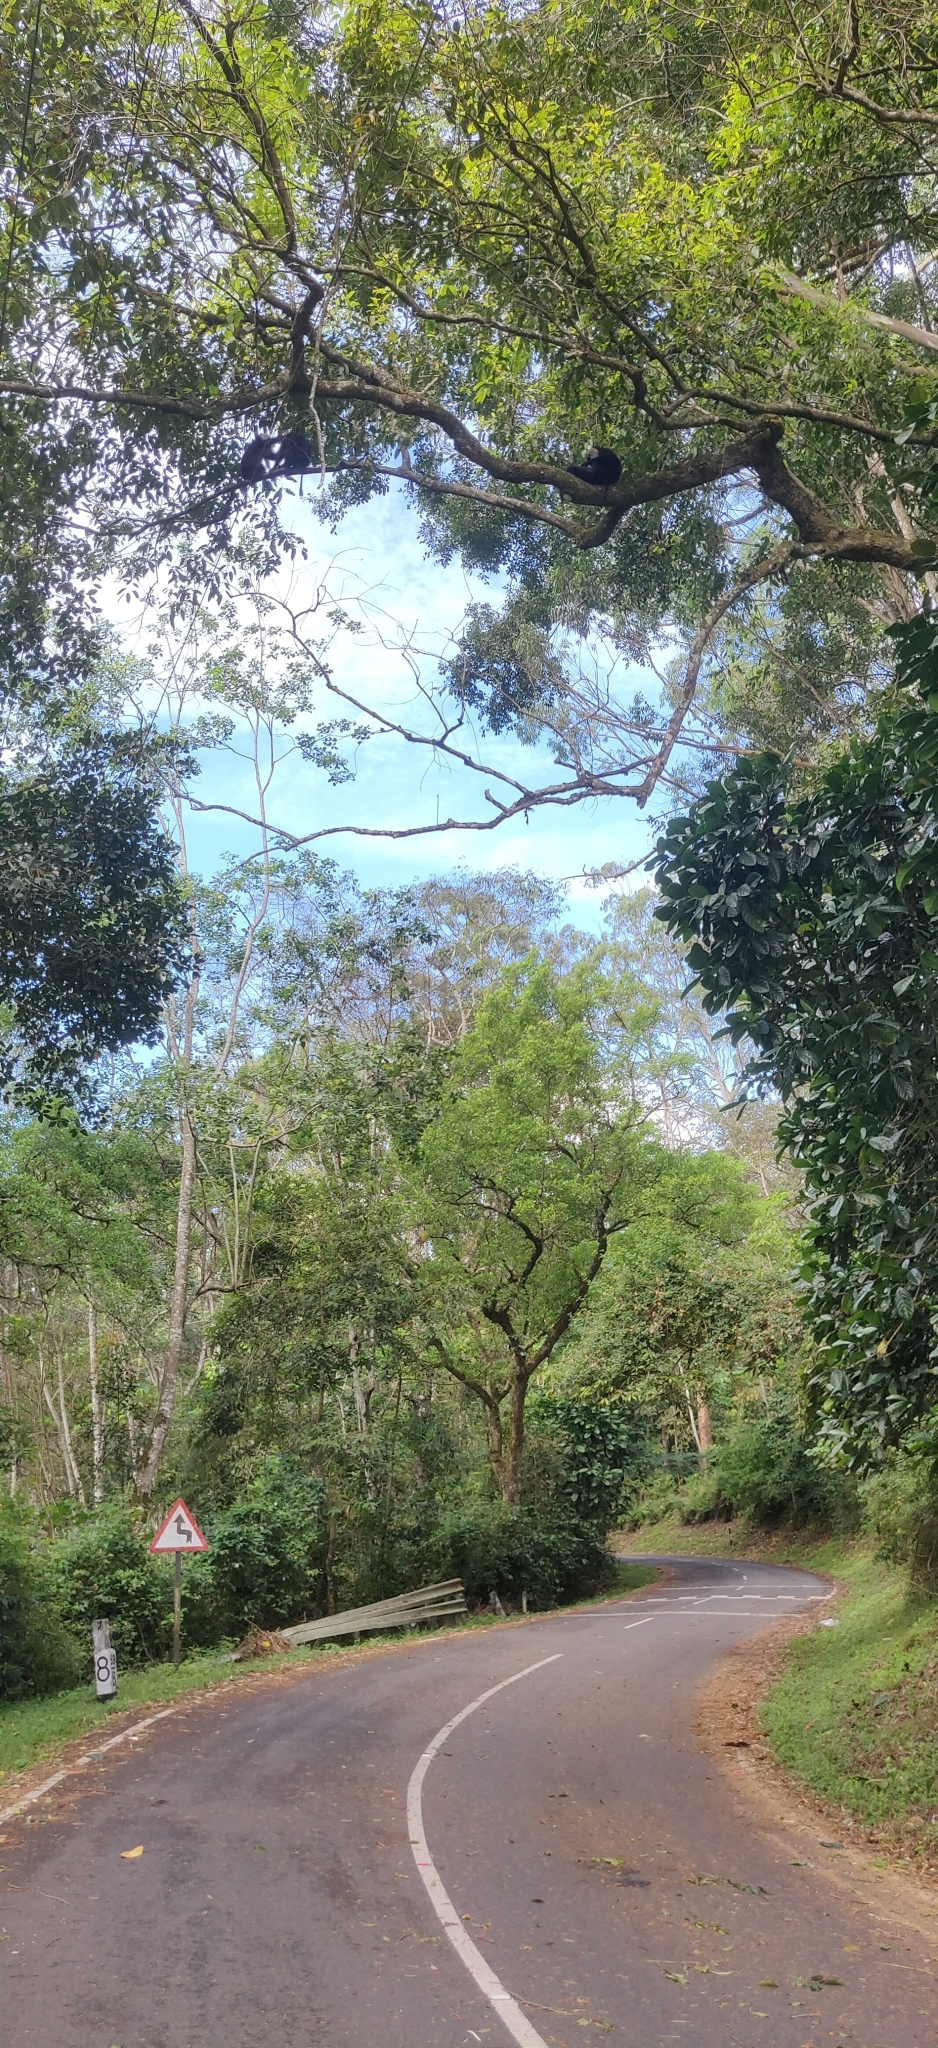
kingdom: Animalia
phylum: Chordata
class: Mammalia
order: Primates
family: Cercopithecidae
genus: Macaca
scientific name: Macaca silenus
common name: Lion-tailed macaque
